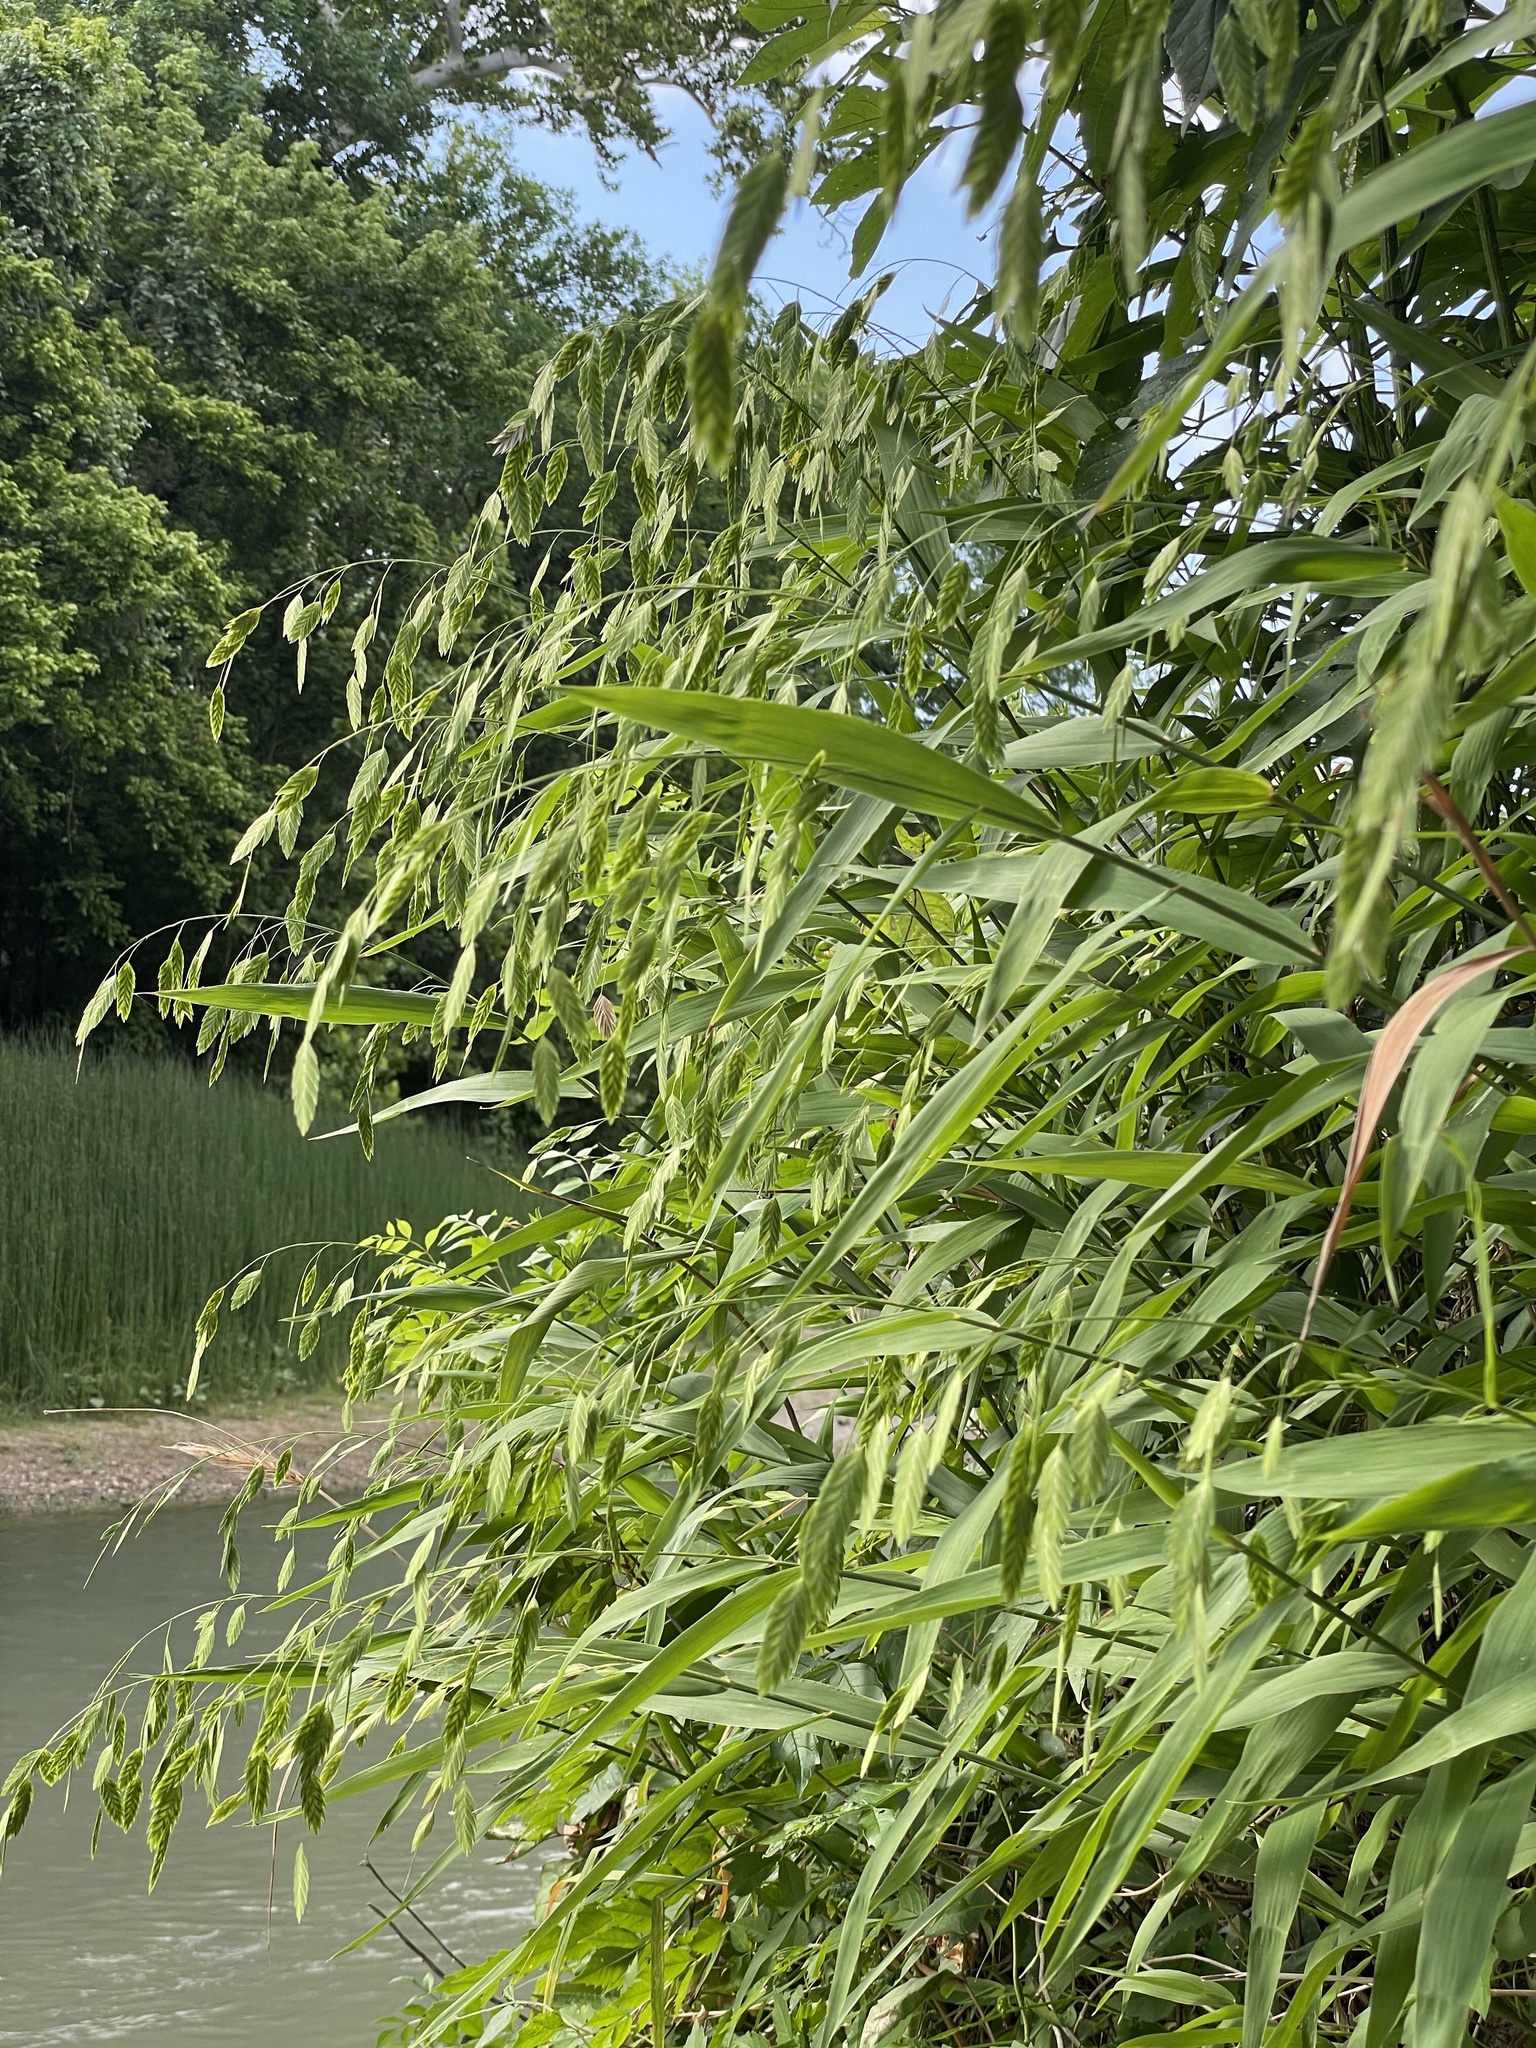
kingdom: Plantae
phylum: Tracheophyta
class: Liliopsida
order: Poales
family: Poaceae
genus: Chasmanthium
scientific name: Chasmanthium latifolium
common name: Broad-leaved chasmanthium
